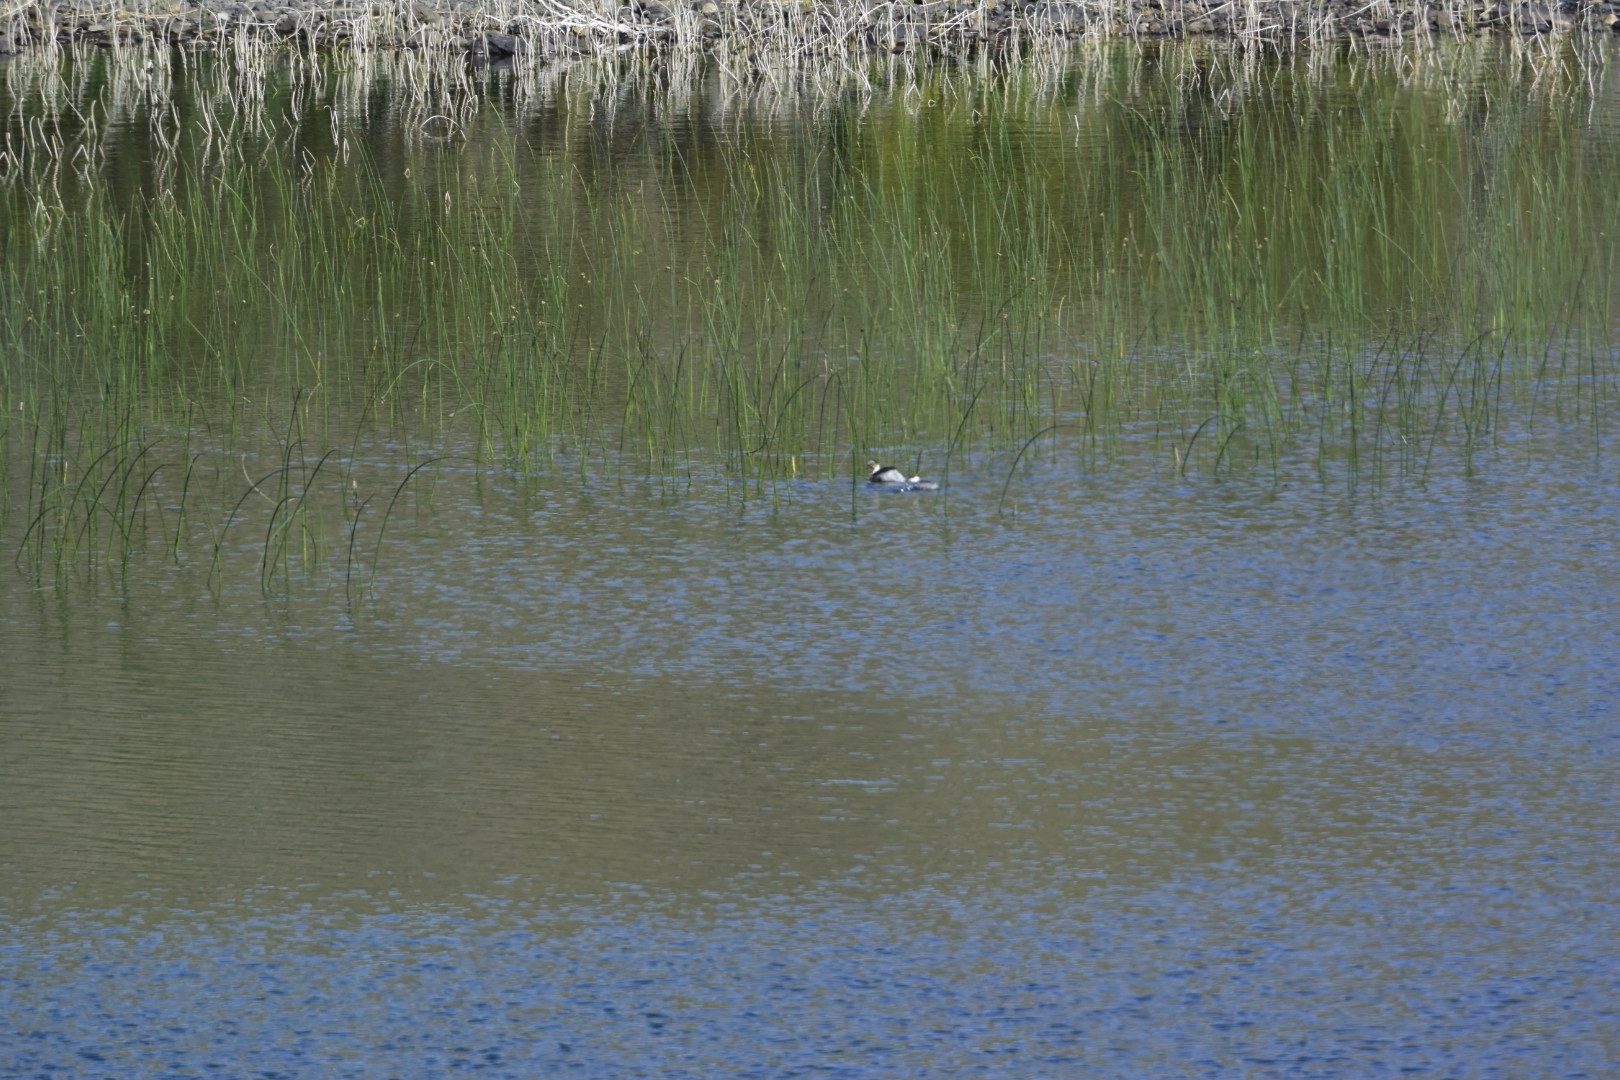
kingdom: Animalia
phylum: Chordata
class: Aves
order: Podicipediformes
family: Podicipedidae
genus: Podiceps
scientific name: Podiceps occipitalis
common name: Silvery grebe
